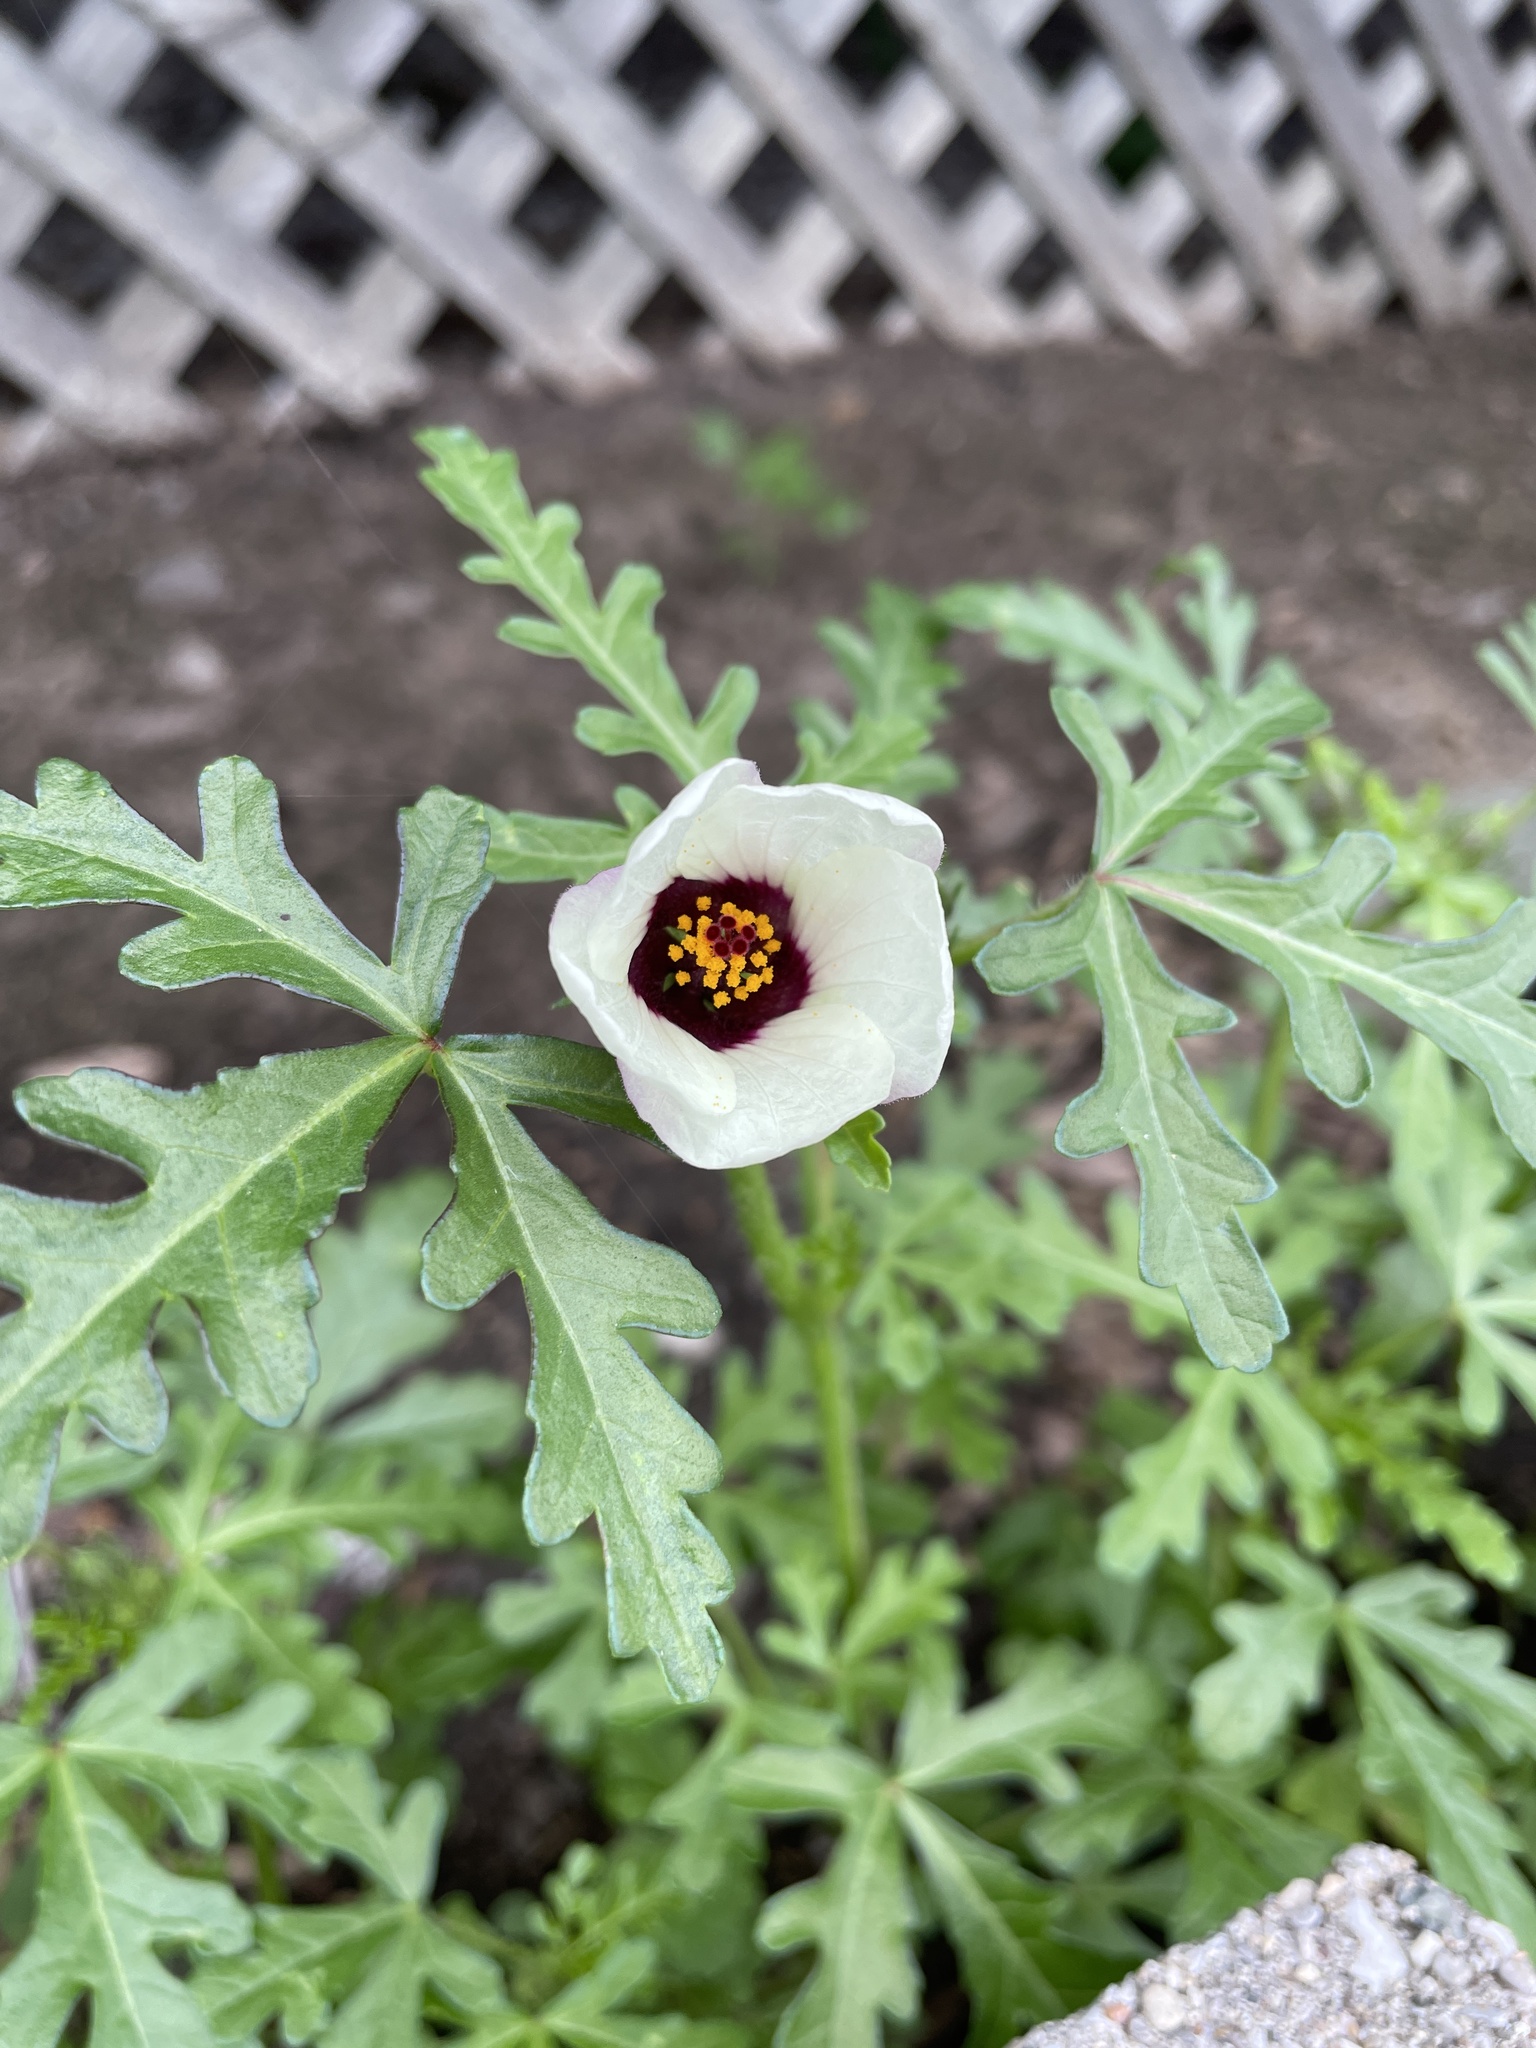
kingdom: Plantae
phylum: Tracheophyta
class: Magnoliopsida
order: Malvales
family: Malvaceae
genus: Hibiscus
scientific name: Hibiscus trionum
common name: Bladder ketmia
